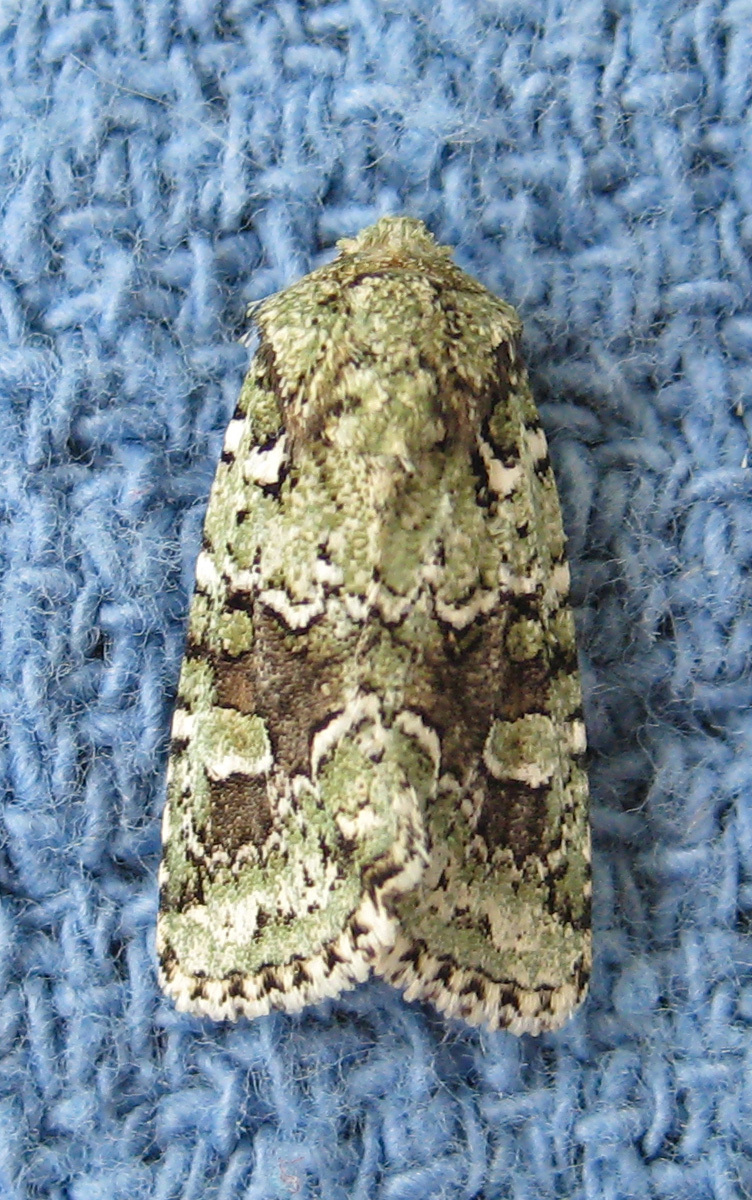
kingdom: Animalia
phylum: Arthropoda
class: Insecta
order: Lepidoptera
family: Noctuidae
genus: Lacinipolia
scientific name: Lacinipolia laudabilis
